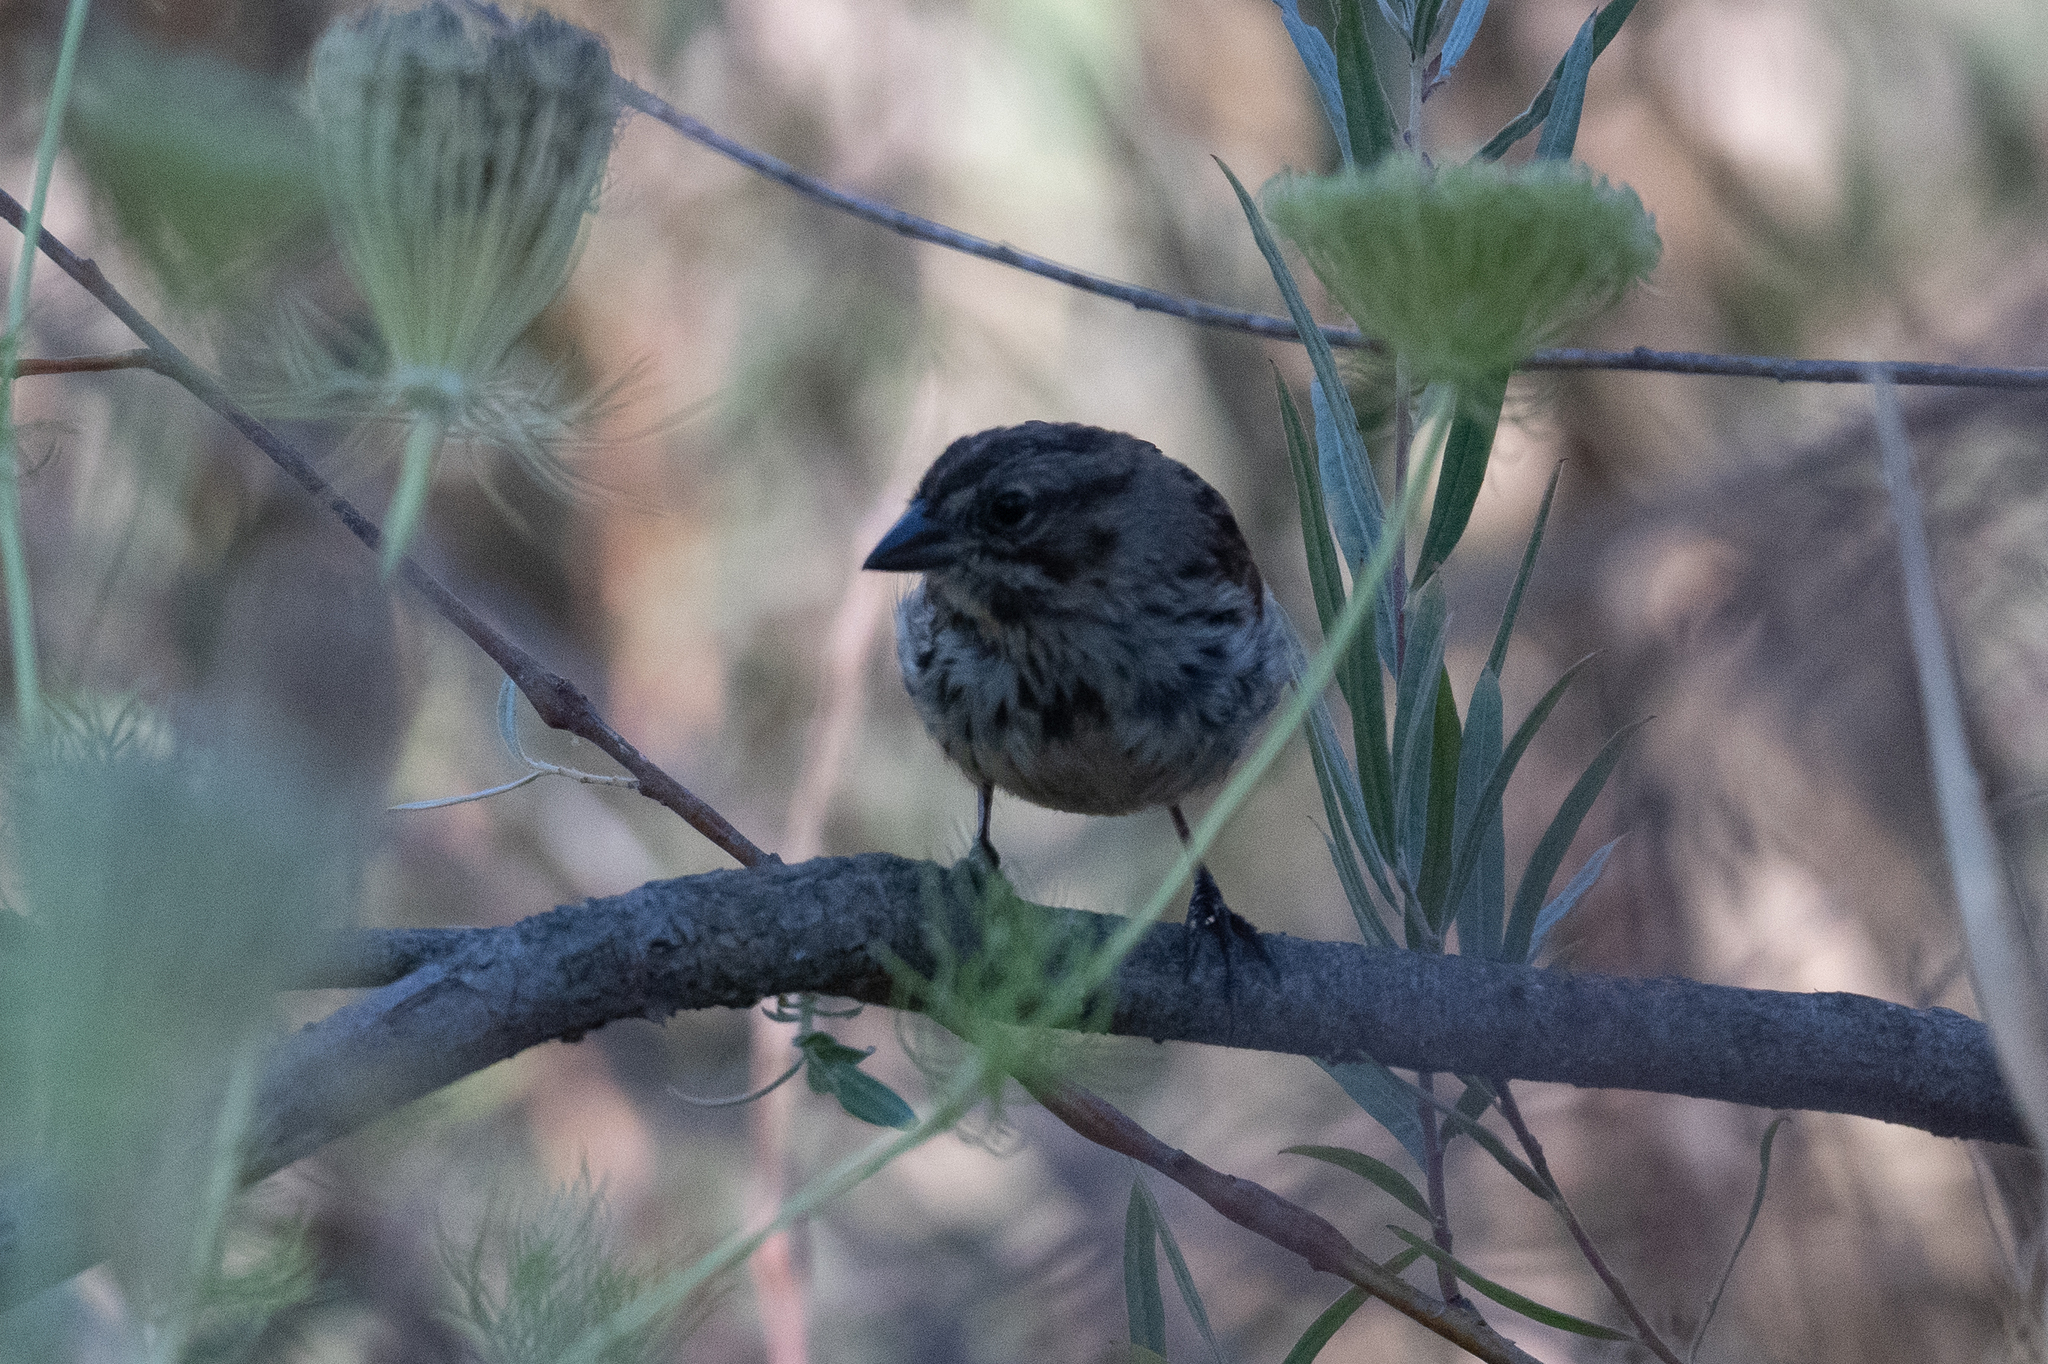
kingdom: Animalia
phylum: Chordata
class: Aves
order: Passeriformes
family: Passerellidae
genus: Melospiza
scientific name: Melospiza melodia
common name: Song sparrow
